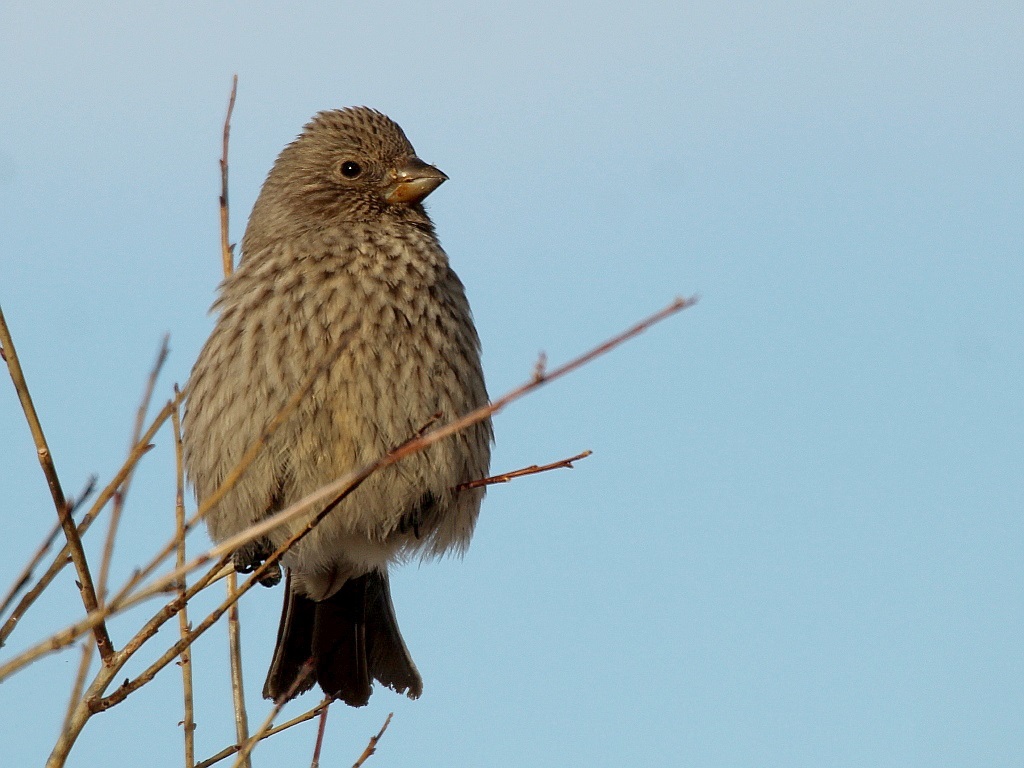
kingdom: Animalia
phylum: Chordata
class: Aves
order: Passeriformes
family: Fringillidae
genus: Carpodacus
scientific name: Carpodacus rubicilla
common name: Great rosefinch
